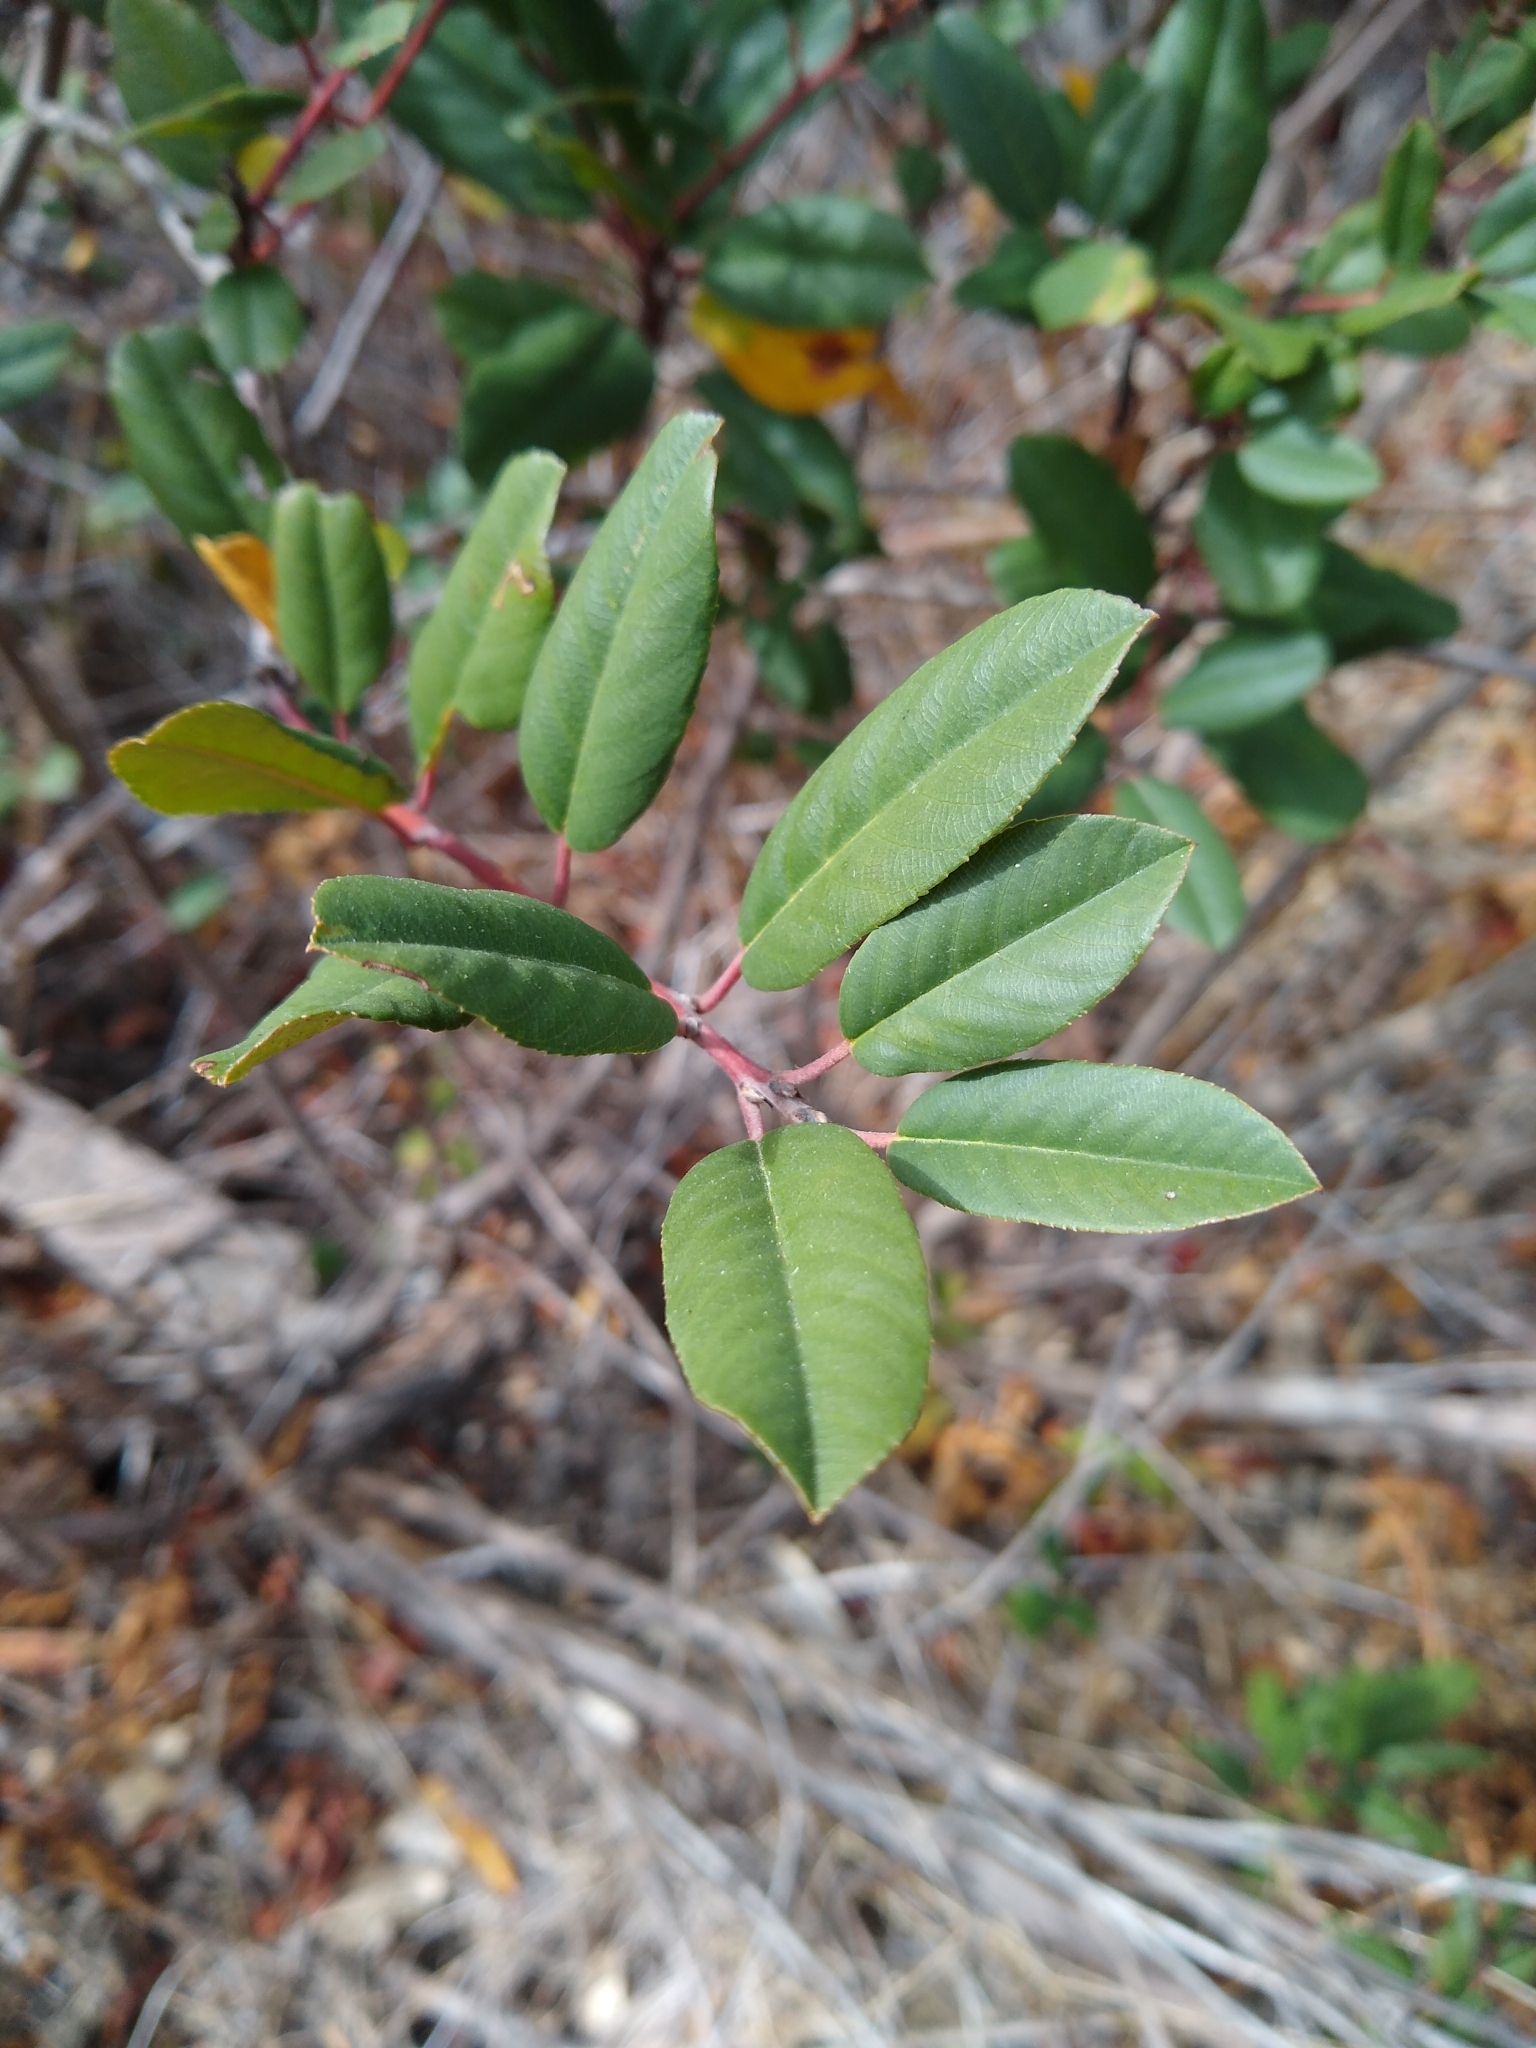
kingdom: Plantae
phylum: Tracheophyta
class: Magnoliopsida
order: Rosales
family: Rhamnaceae
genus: Frangula
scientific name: Frangula californica
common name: California buckthorn
